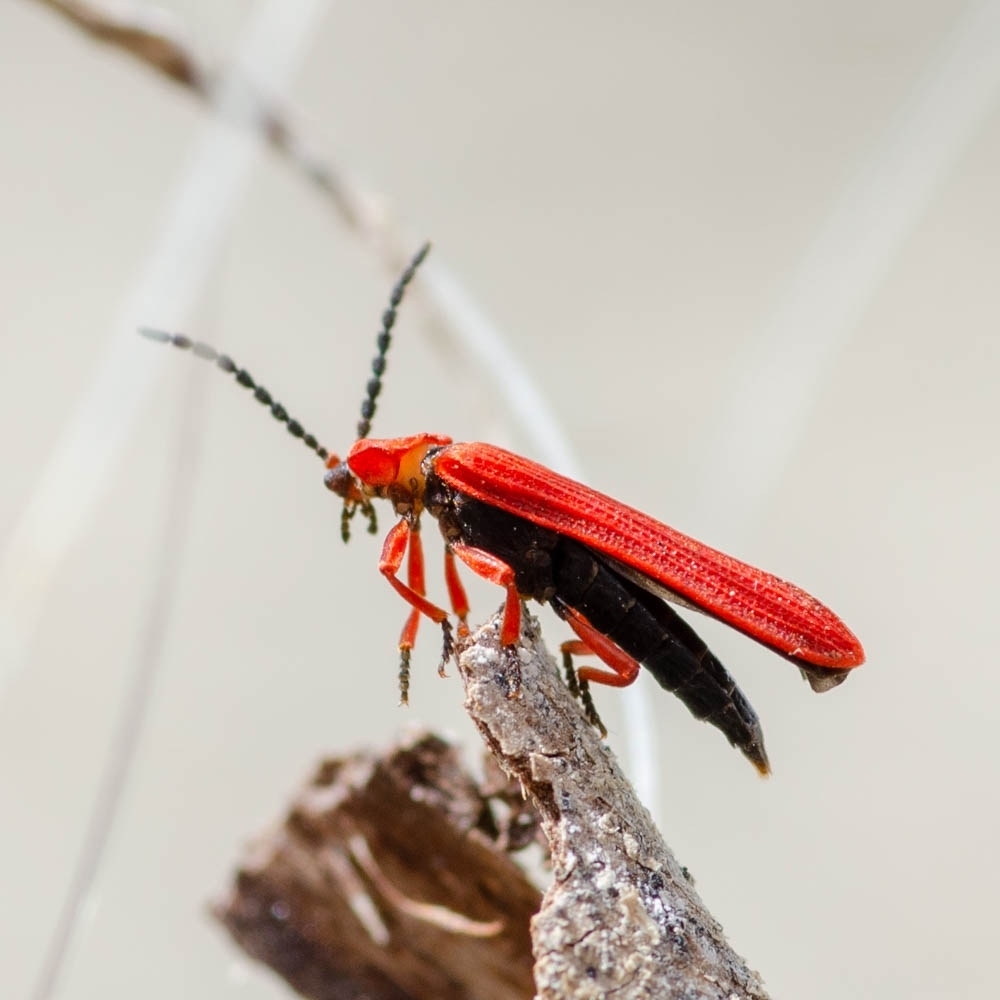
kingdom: Animalia
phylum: Arthropoda
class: Insecta
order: Coleoptera
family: Lycidae
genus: Dictyoptera
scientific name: Dictyoptera simplicipes
